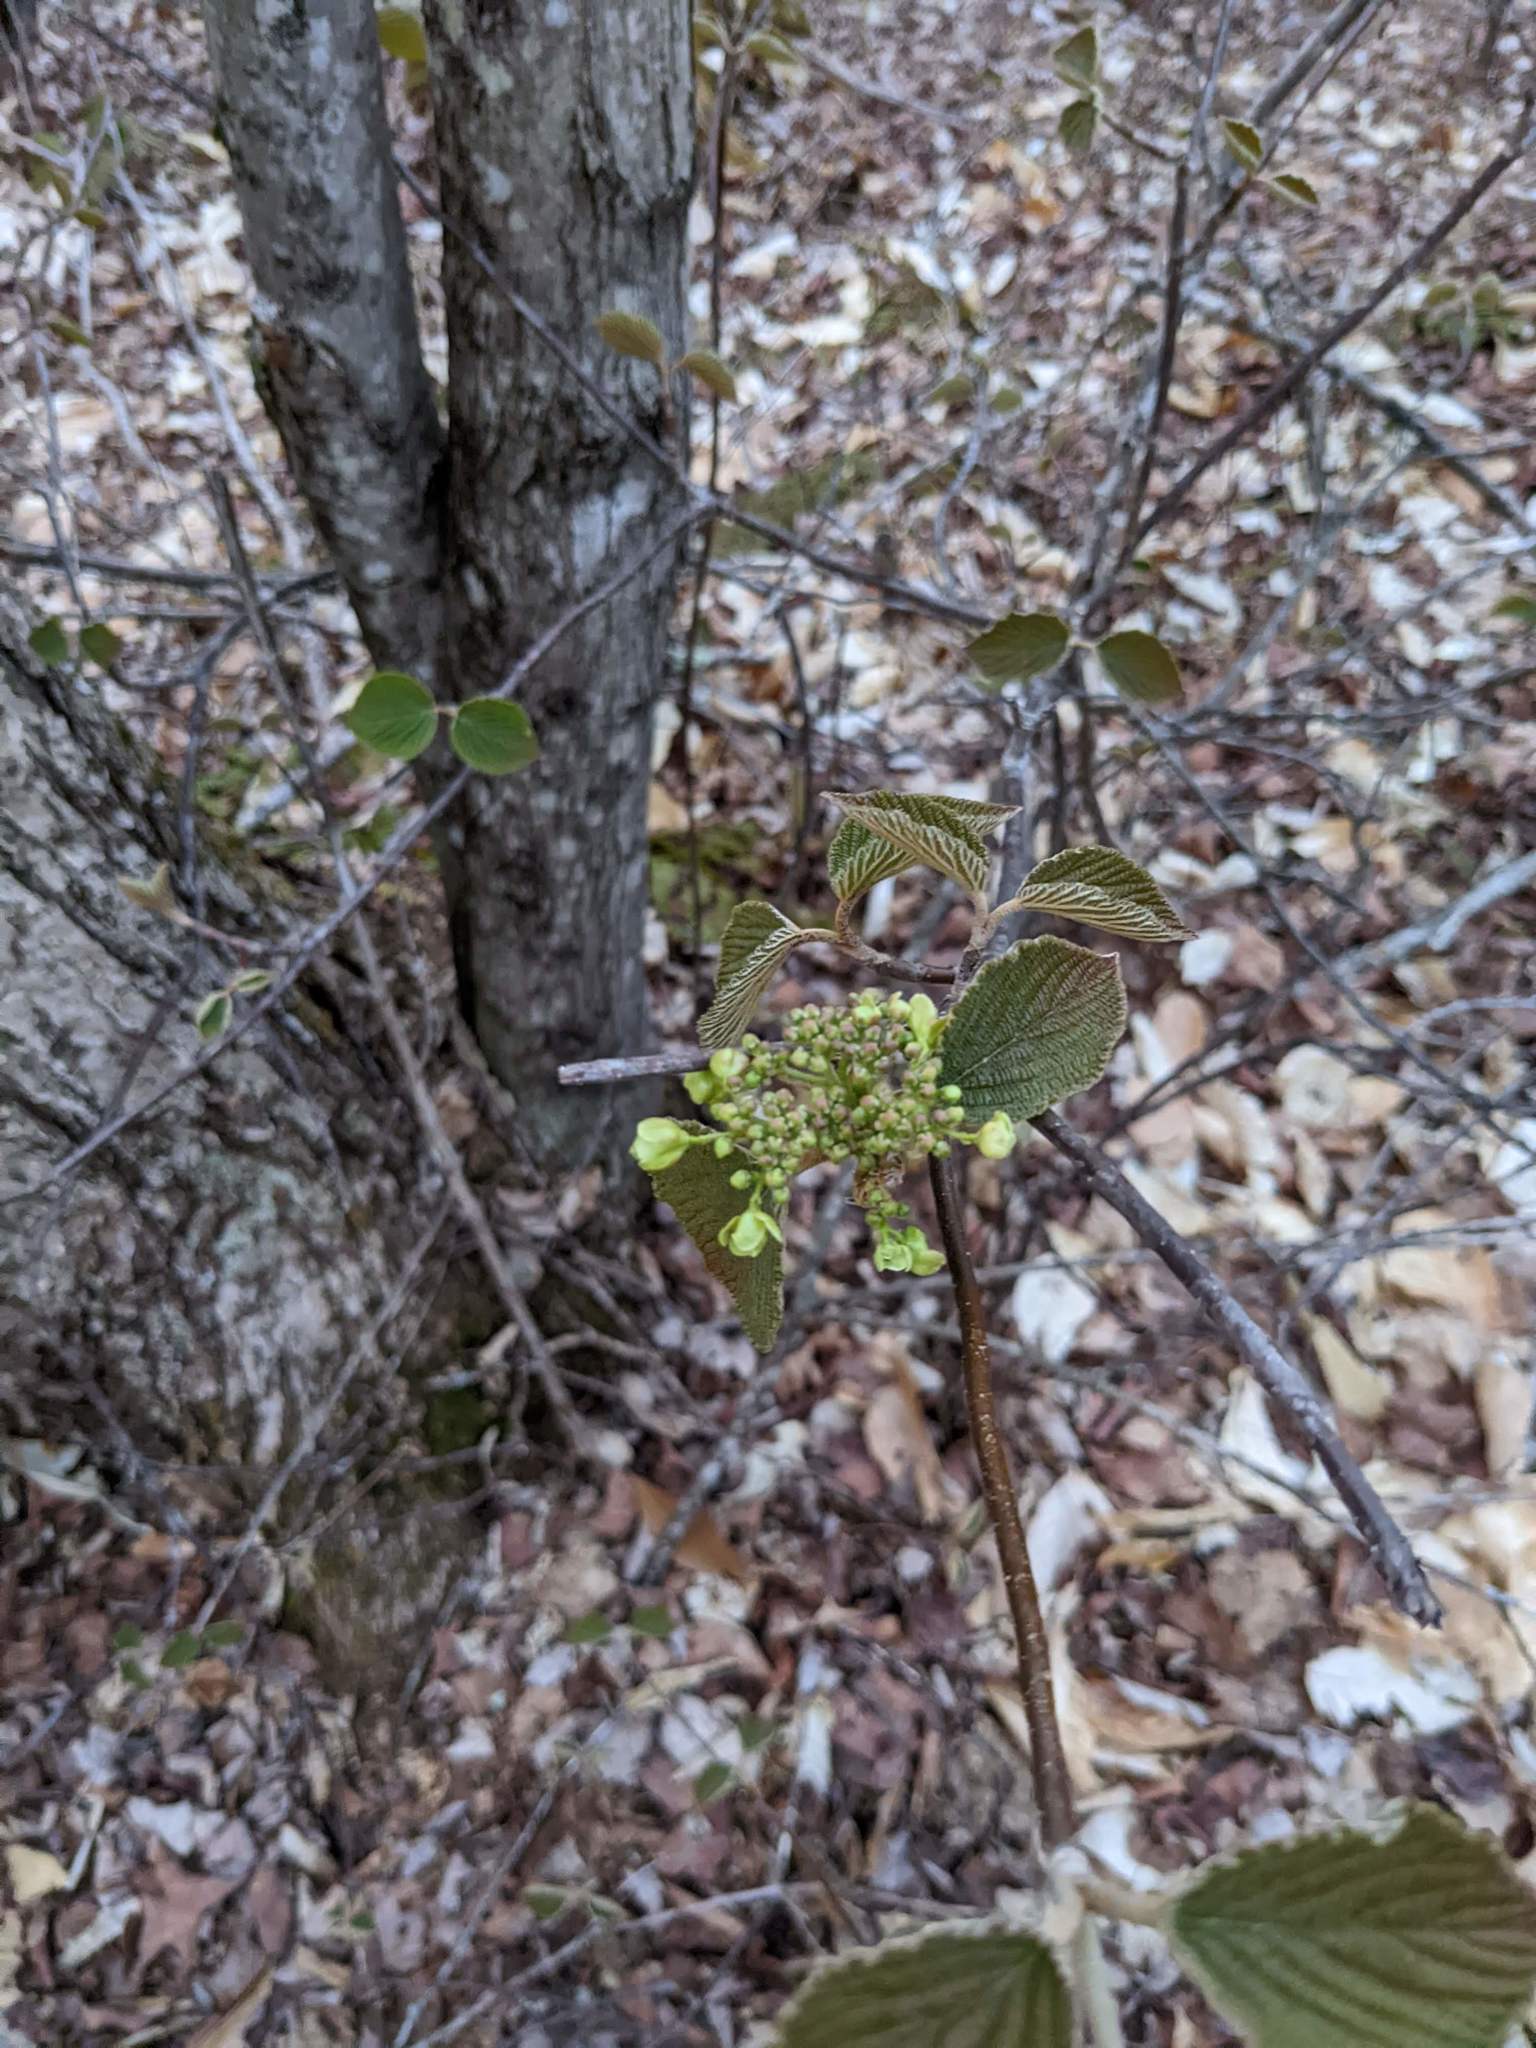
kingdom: Plantae
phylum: Tracheophyta
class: Magnoliopsida
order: Dipsacales
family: Viburnaceae
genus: Viburnum
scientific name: Viburnum lantanoides
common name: Hobblebush
